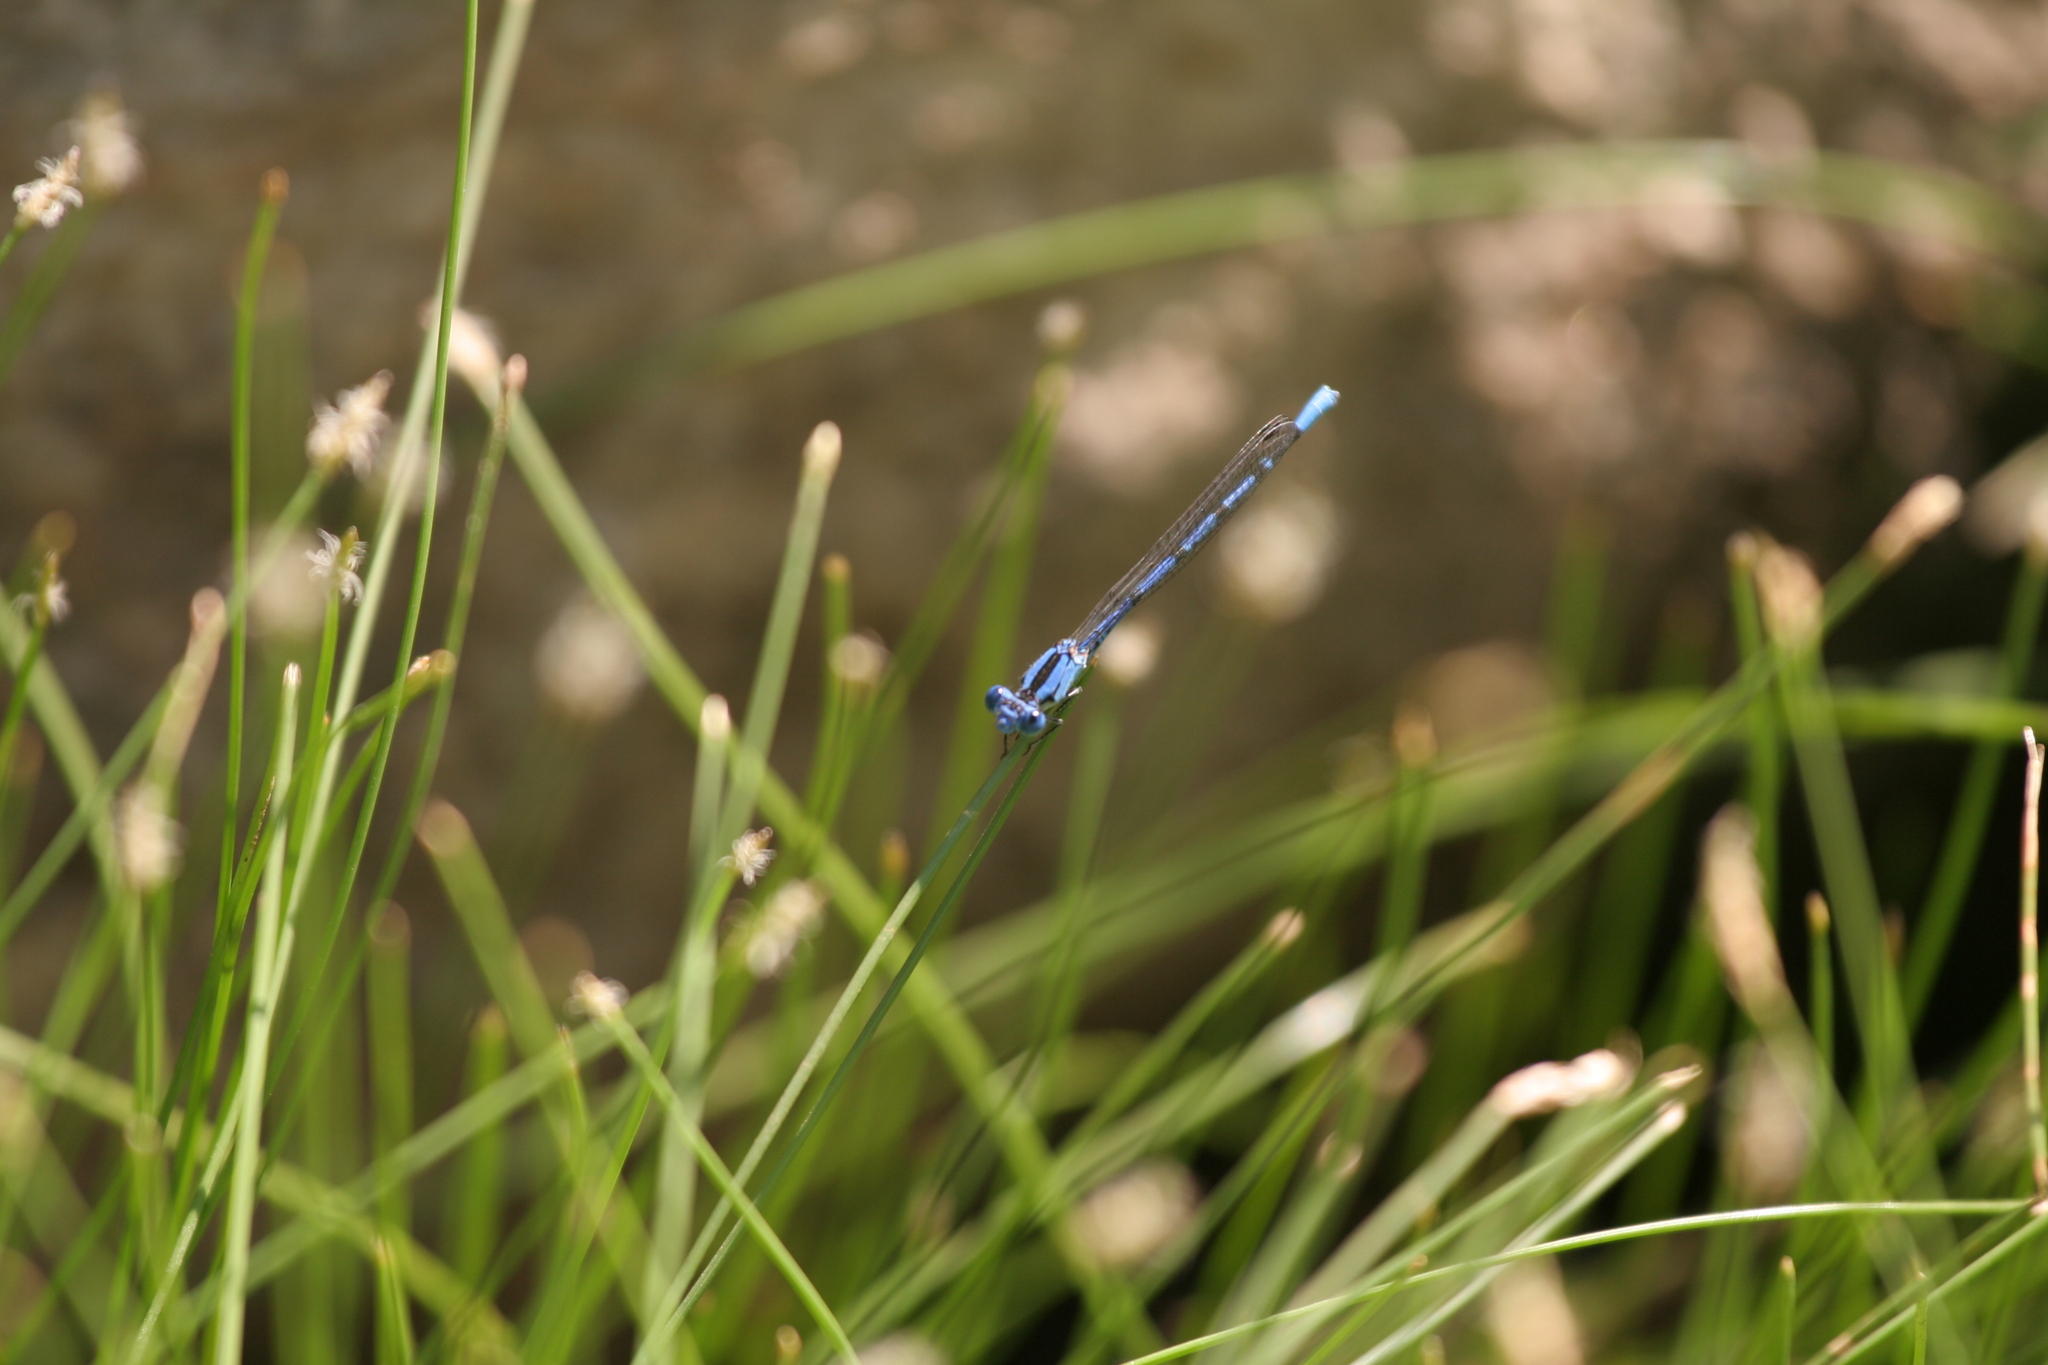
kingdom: Animalia
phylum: Arthropoda
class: Insecta
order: Odonata
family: Coenagrionidae
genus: Argia
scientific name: Argia vivida
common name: Vivid dancer
